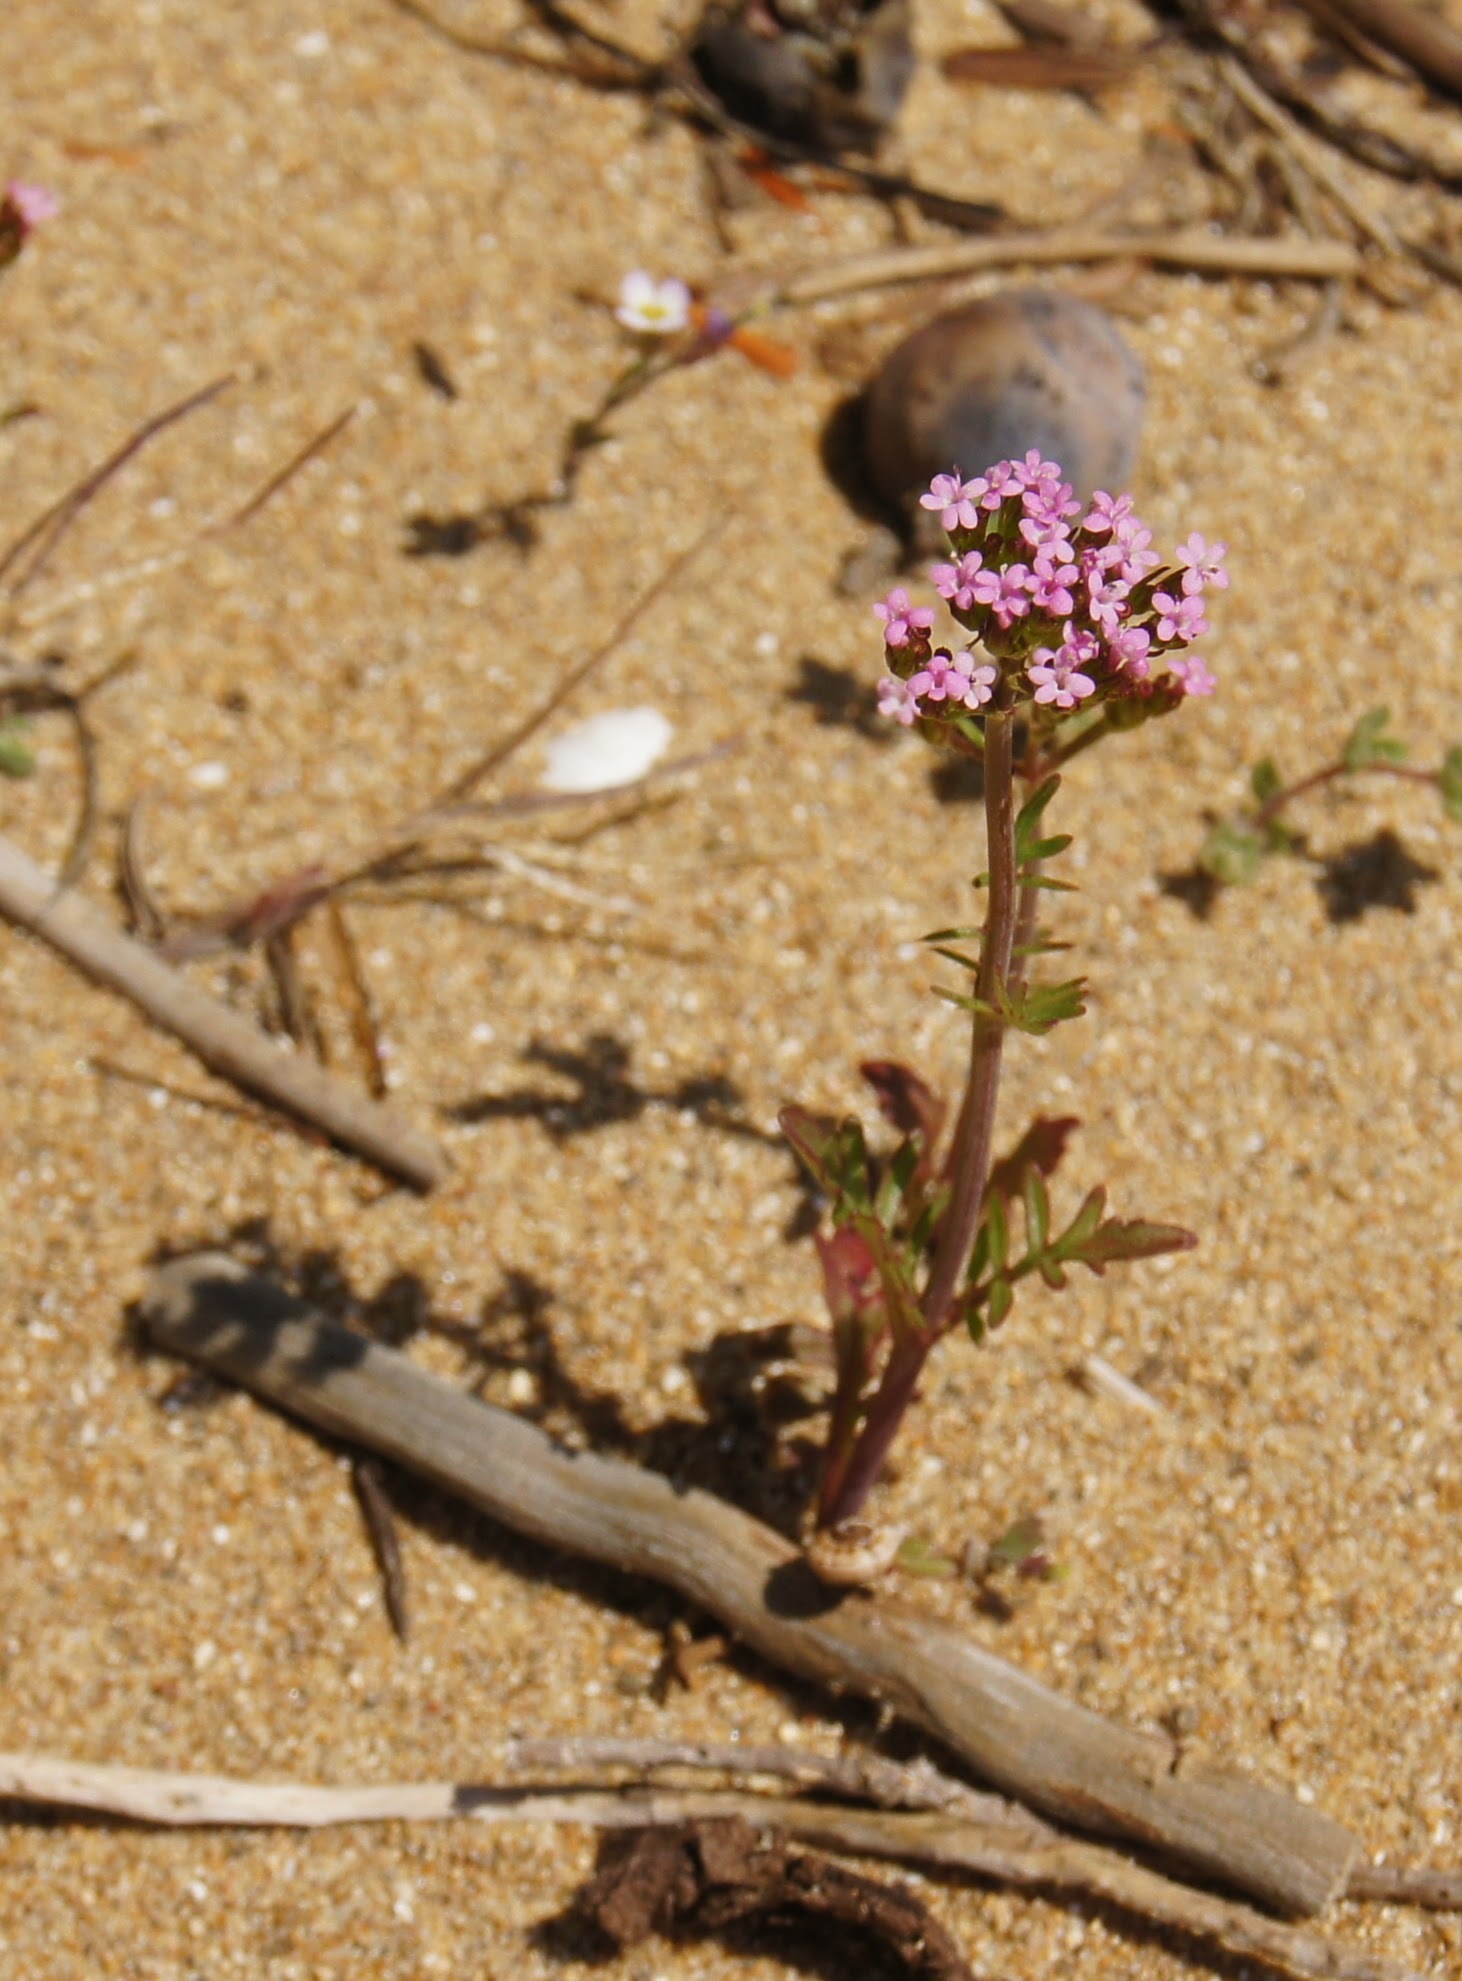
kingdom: Plantae
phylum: Tracheophyta
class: Magnoliopsida
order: Dipsacales
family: Caprifoliaceae
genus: Centranthus
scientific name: Centranthus calcitrapae
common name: Annual valerian
